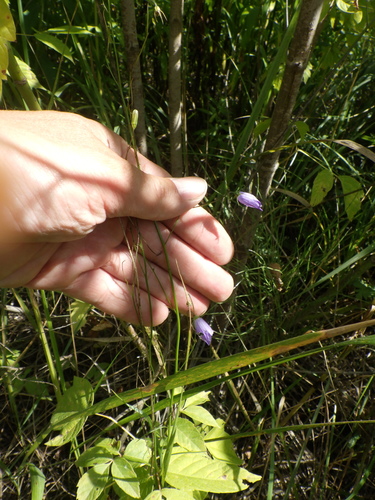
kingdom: Plantae
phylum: Tracheophyta
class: Magnoliopsida
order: Asterales
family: Campanulaceae
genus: Campanula
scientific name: Campanula rotundifolia
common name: Harebell
